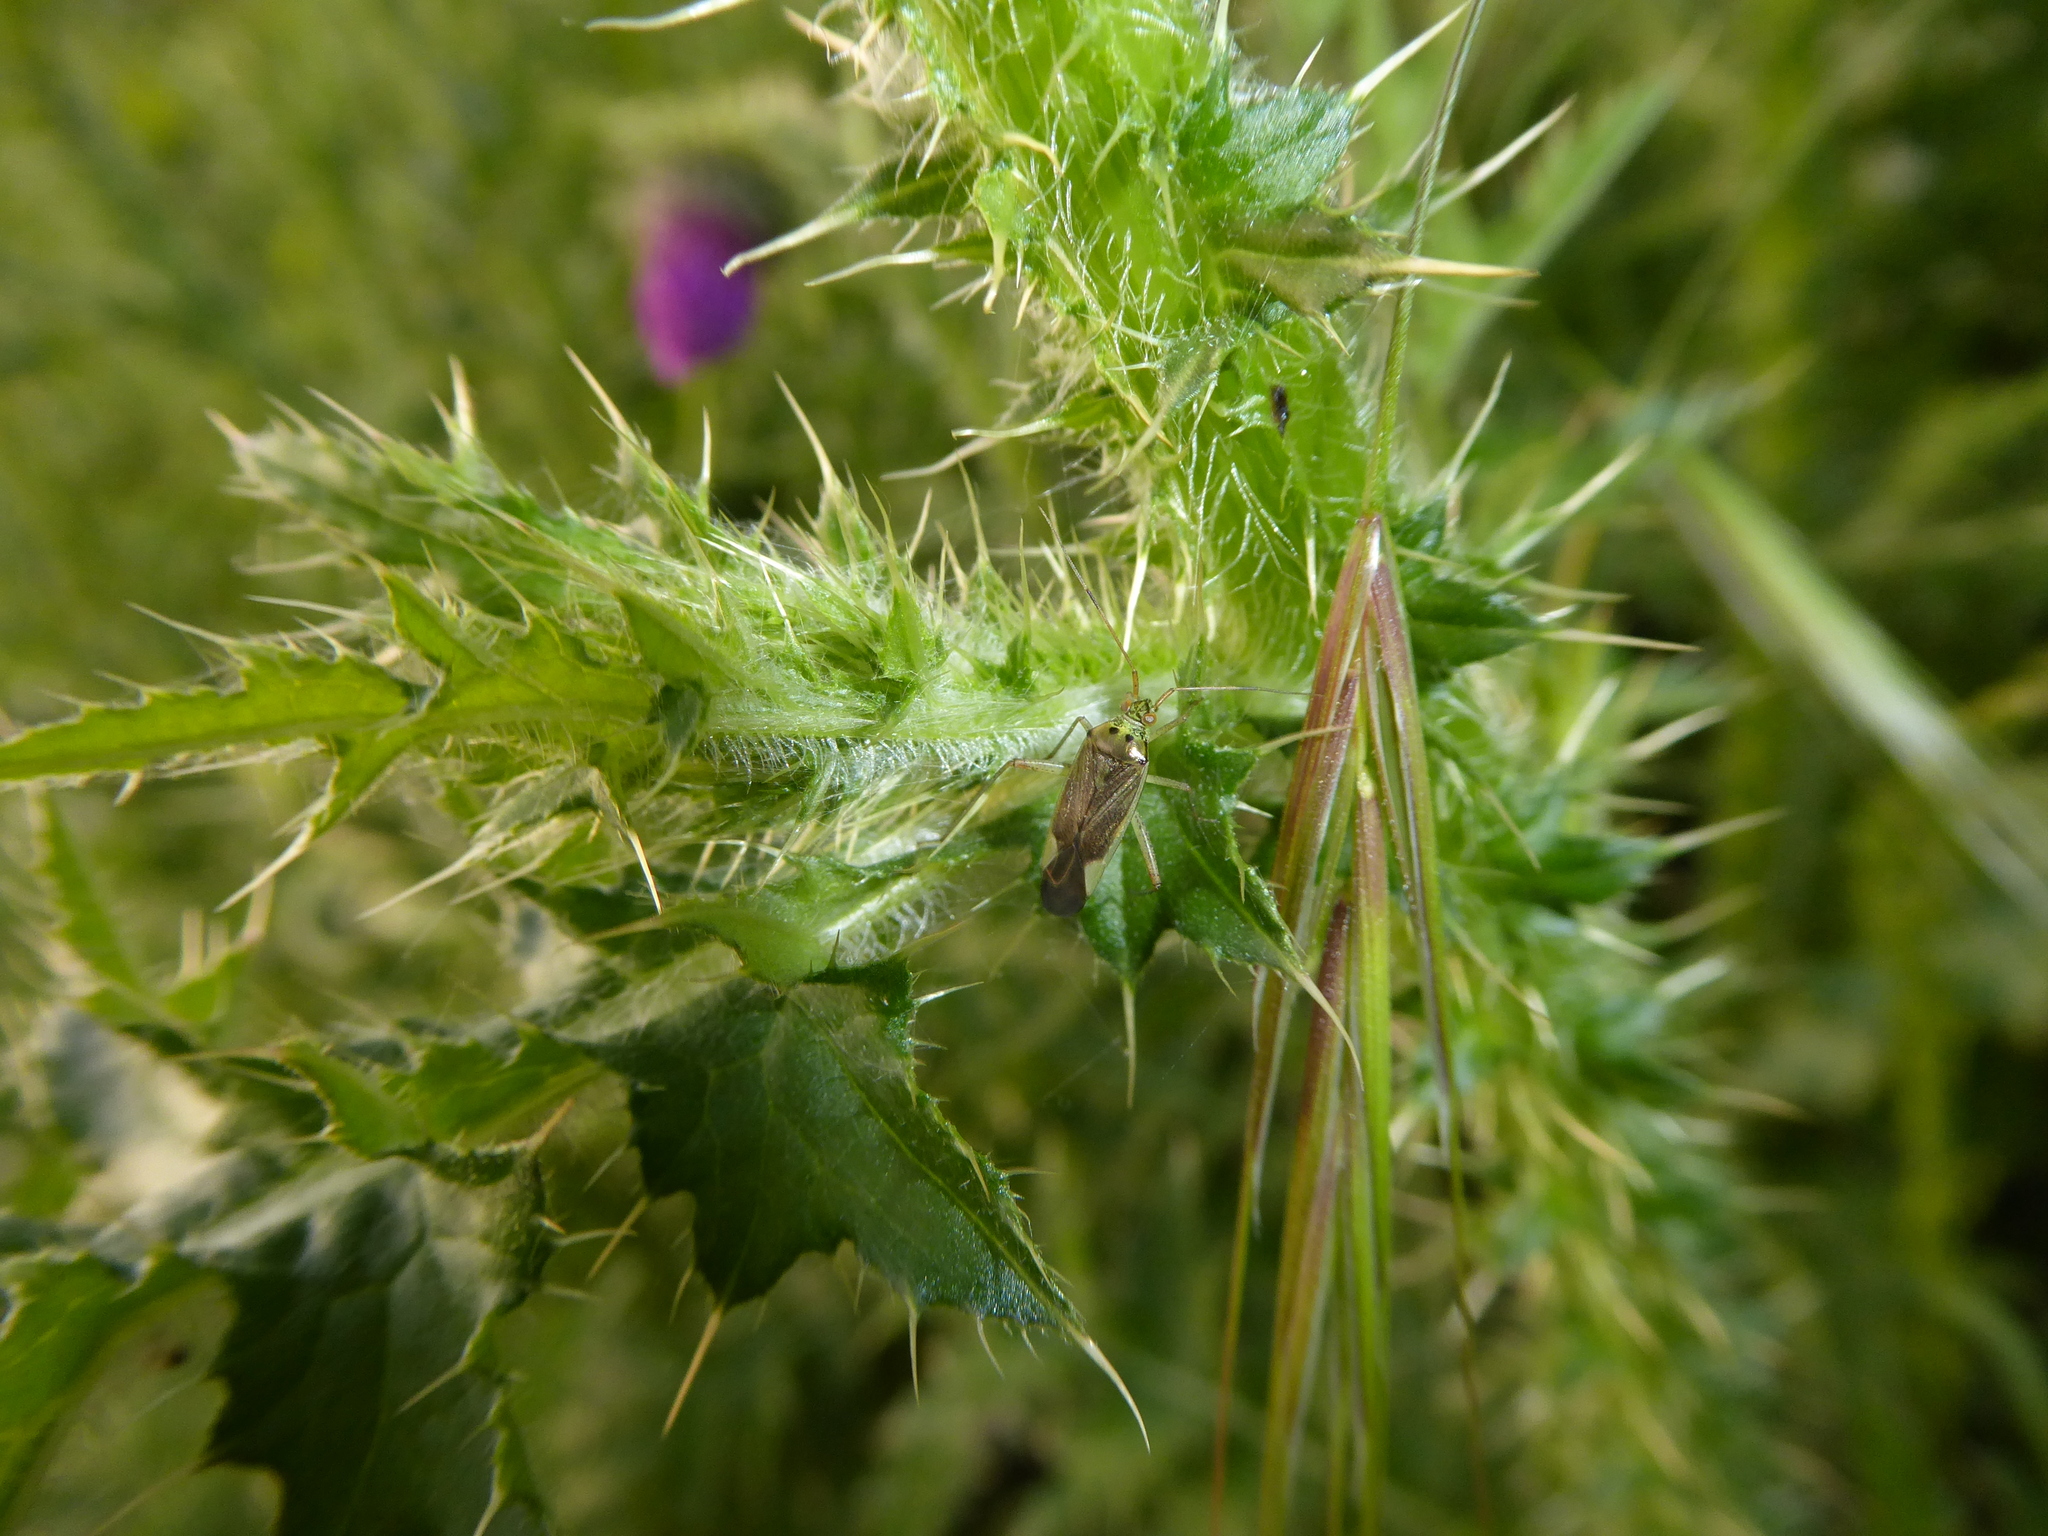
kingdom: Animalia
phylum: Arthropoda
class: Insecta
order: Hemiptera
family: Miridae
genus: Closterotomus
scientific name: Closterotomus trivialis
